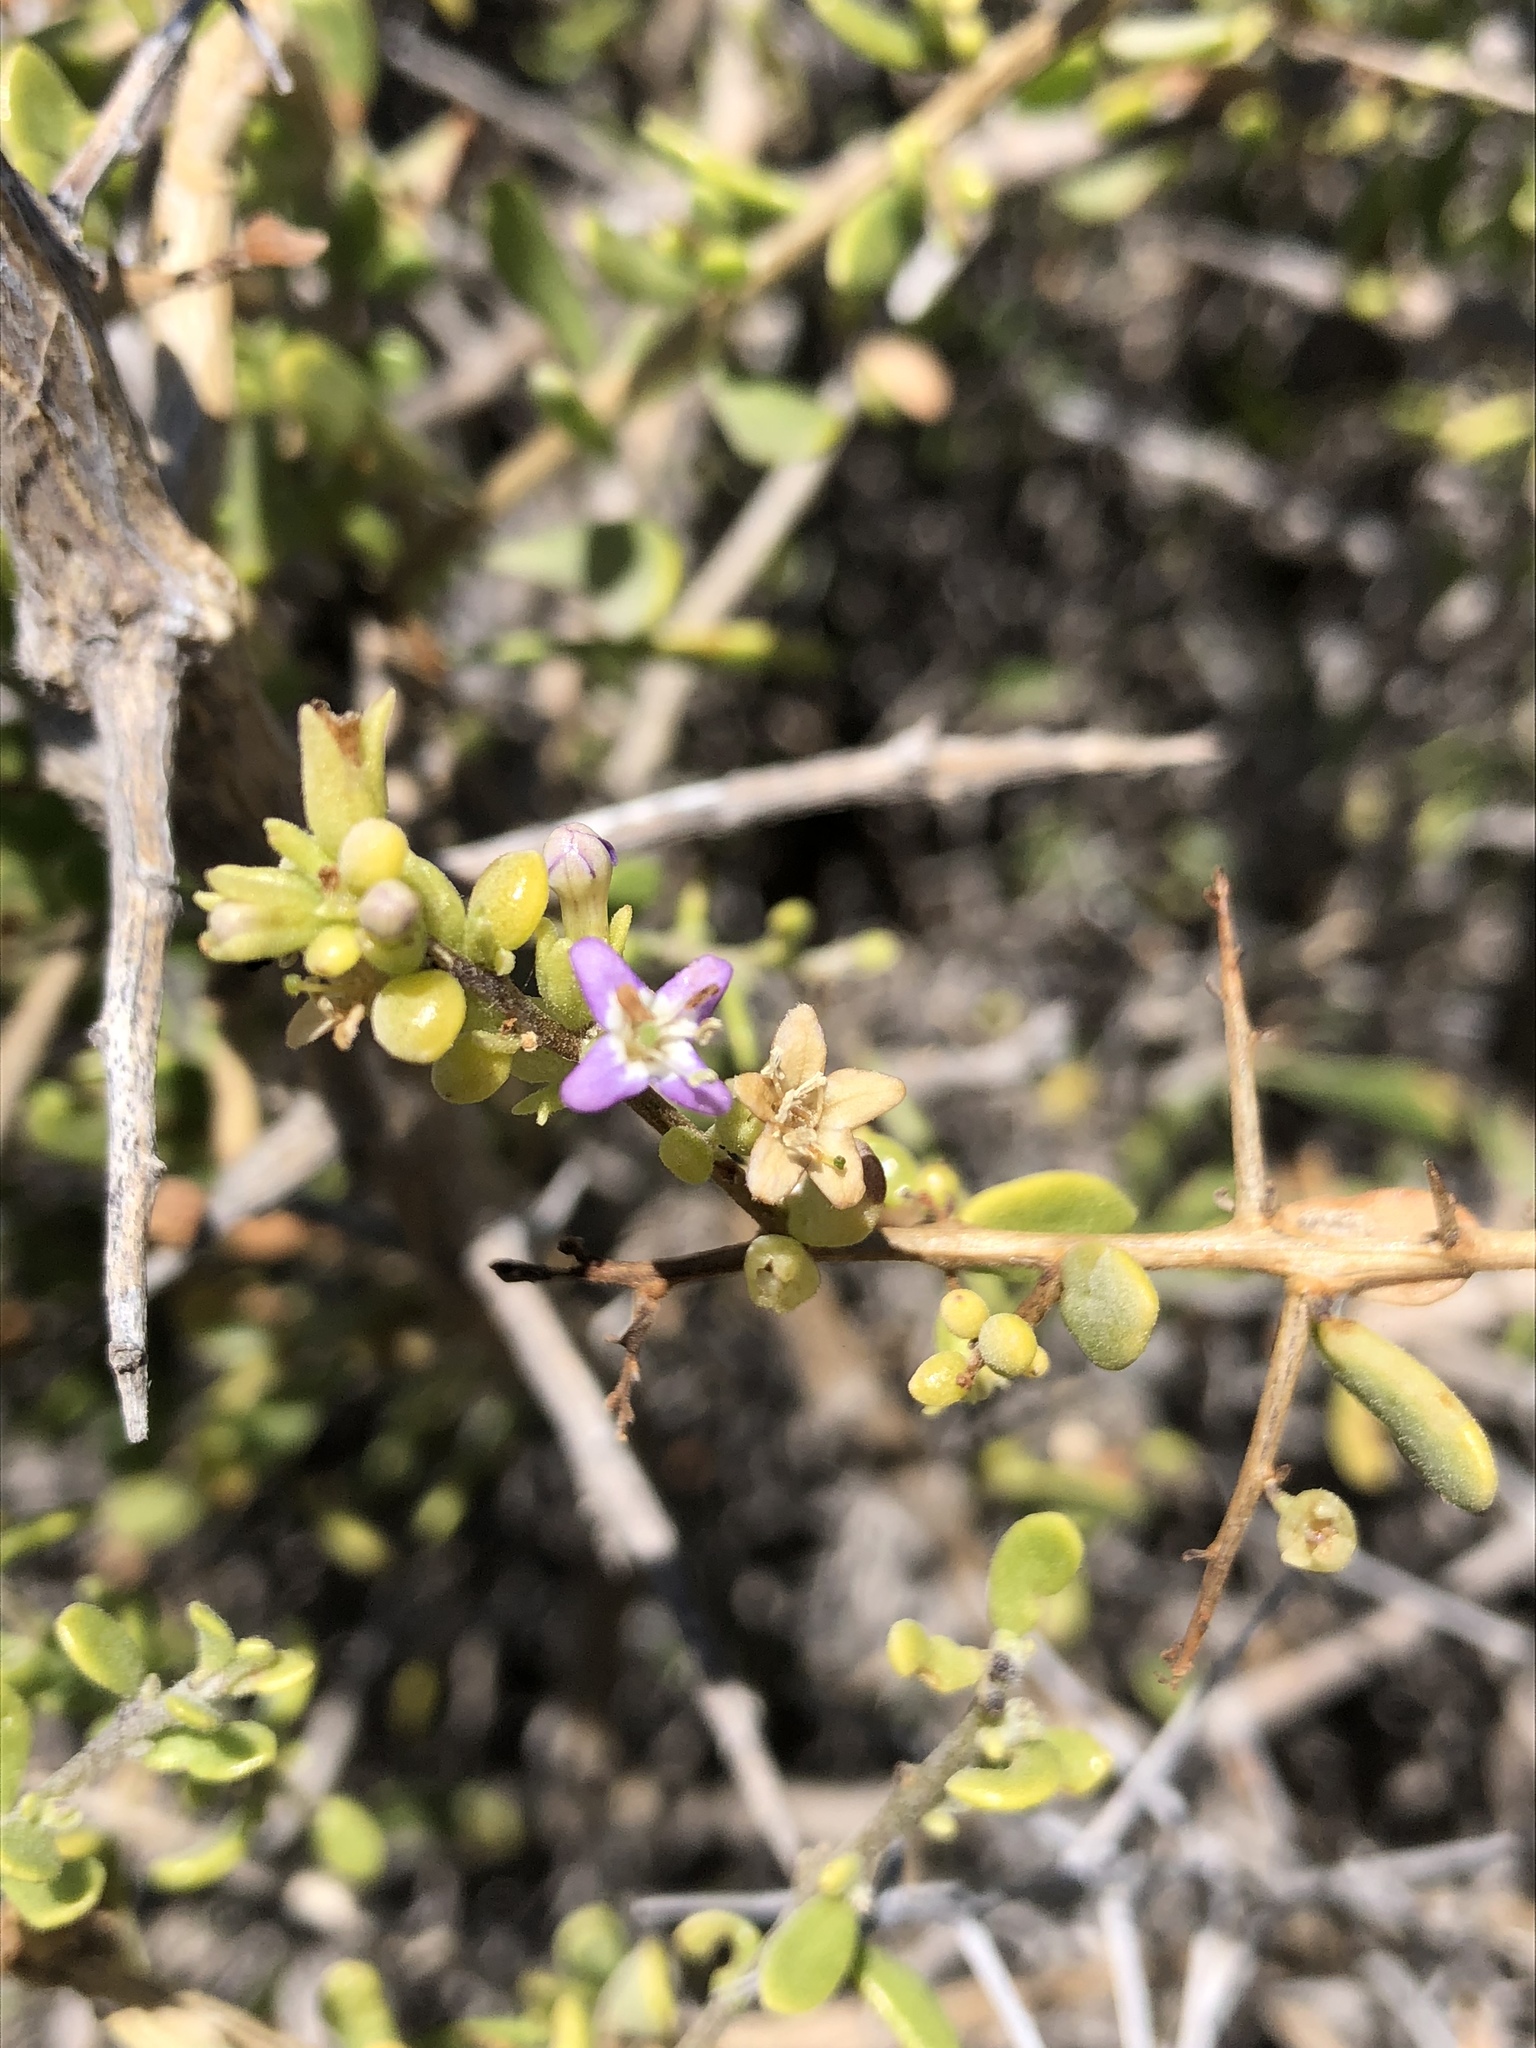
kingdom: Plantae
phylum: Tracheophyta
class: Magnoliopsida
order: Solanales
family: Solanaceae
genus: Lycium
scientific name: Lycium brevipes
